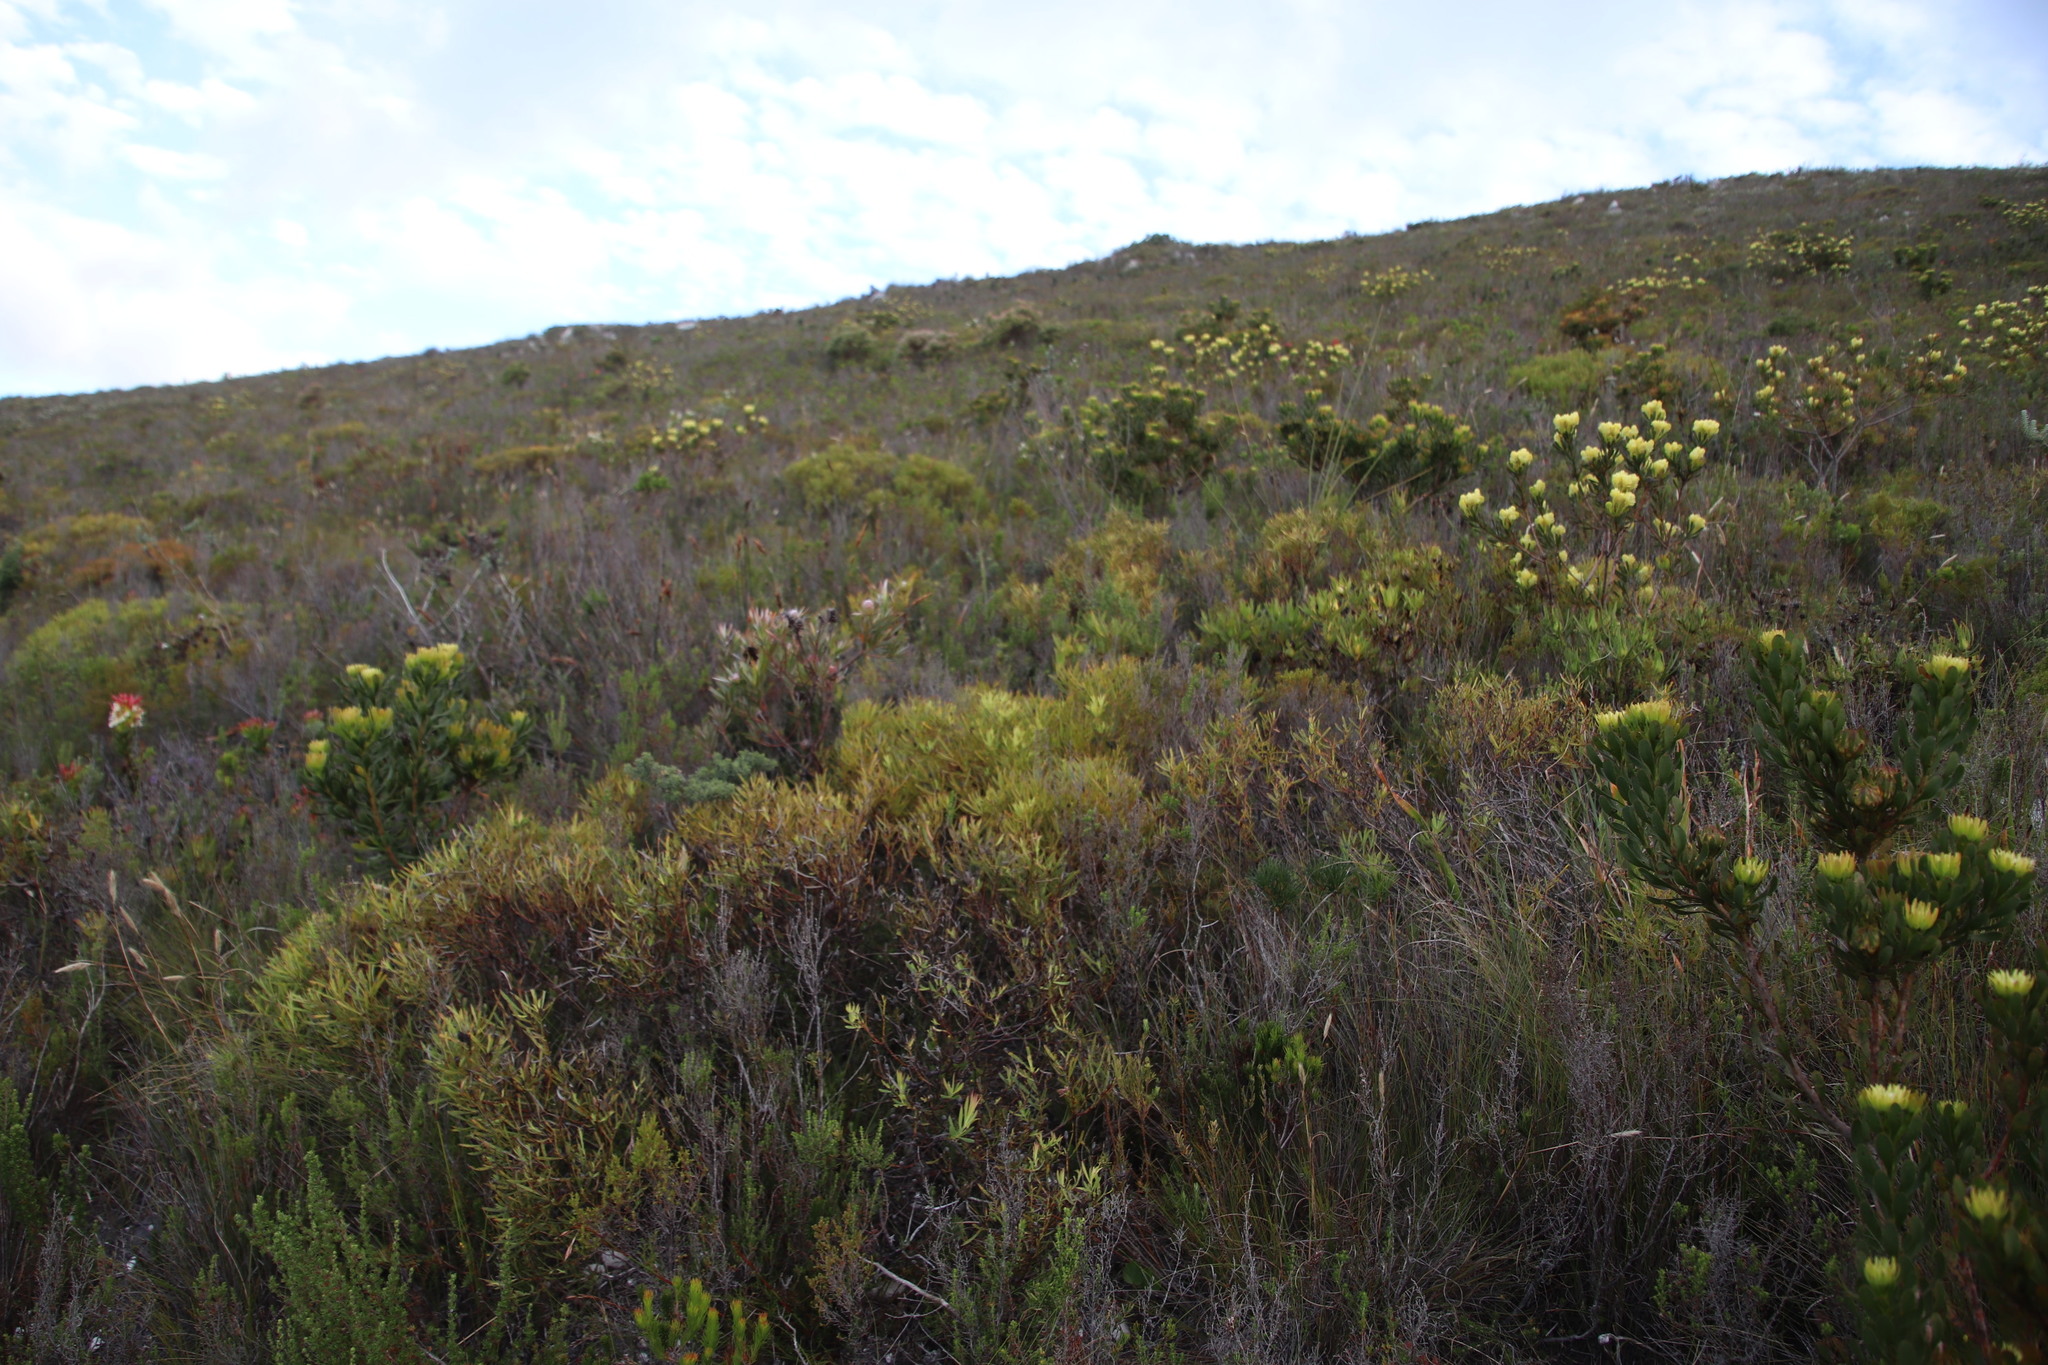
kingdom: Plantae
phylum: Tracheophyta
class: Magnoliopsida
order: Proteales
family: Proteaceae
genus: Leucadendron
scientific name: Leucadendron salignum
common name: Common sunshine conebush
